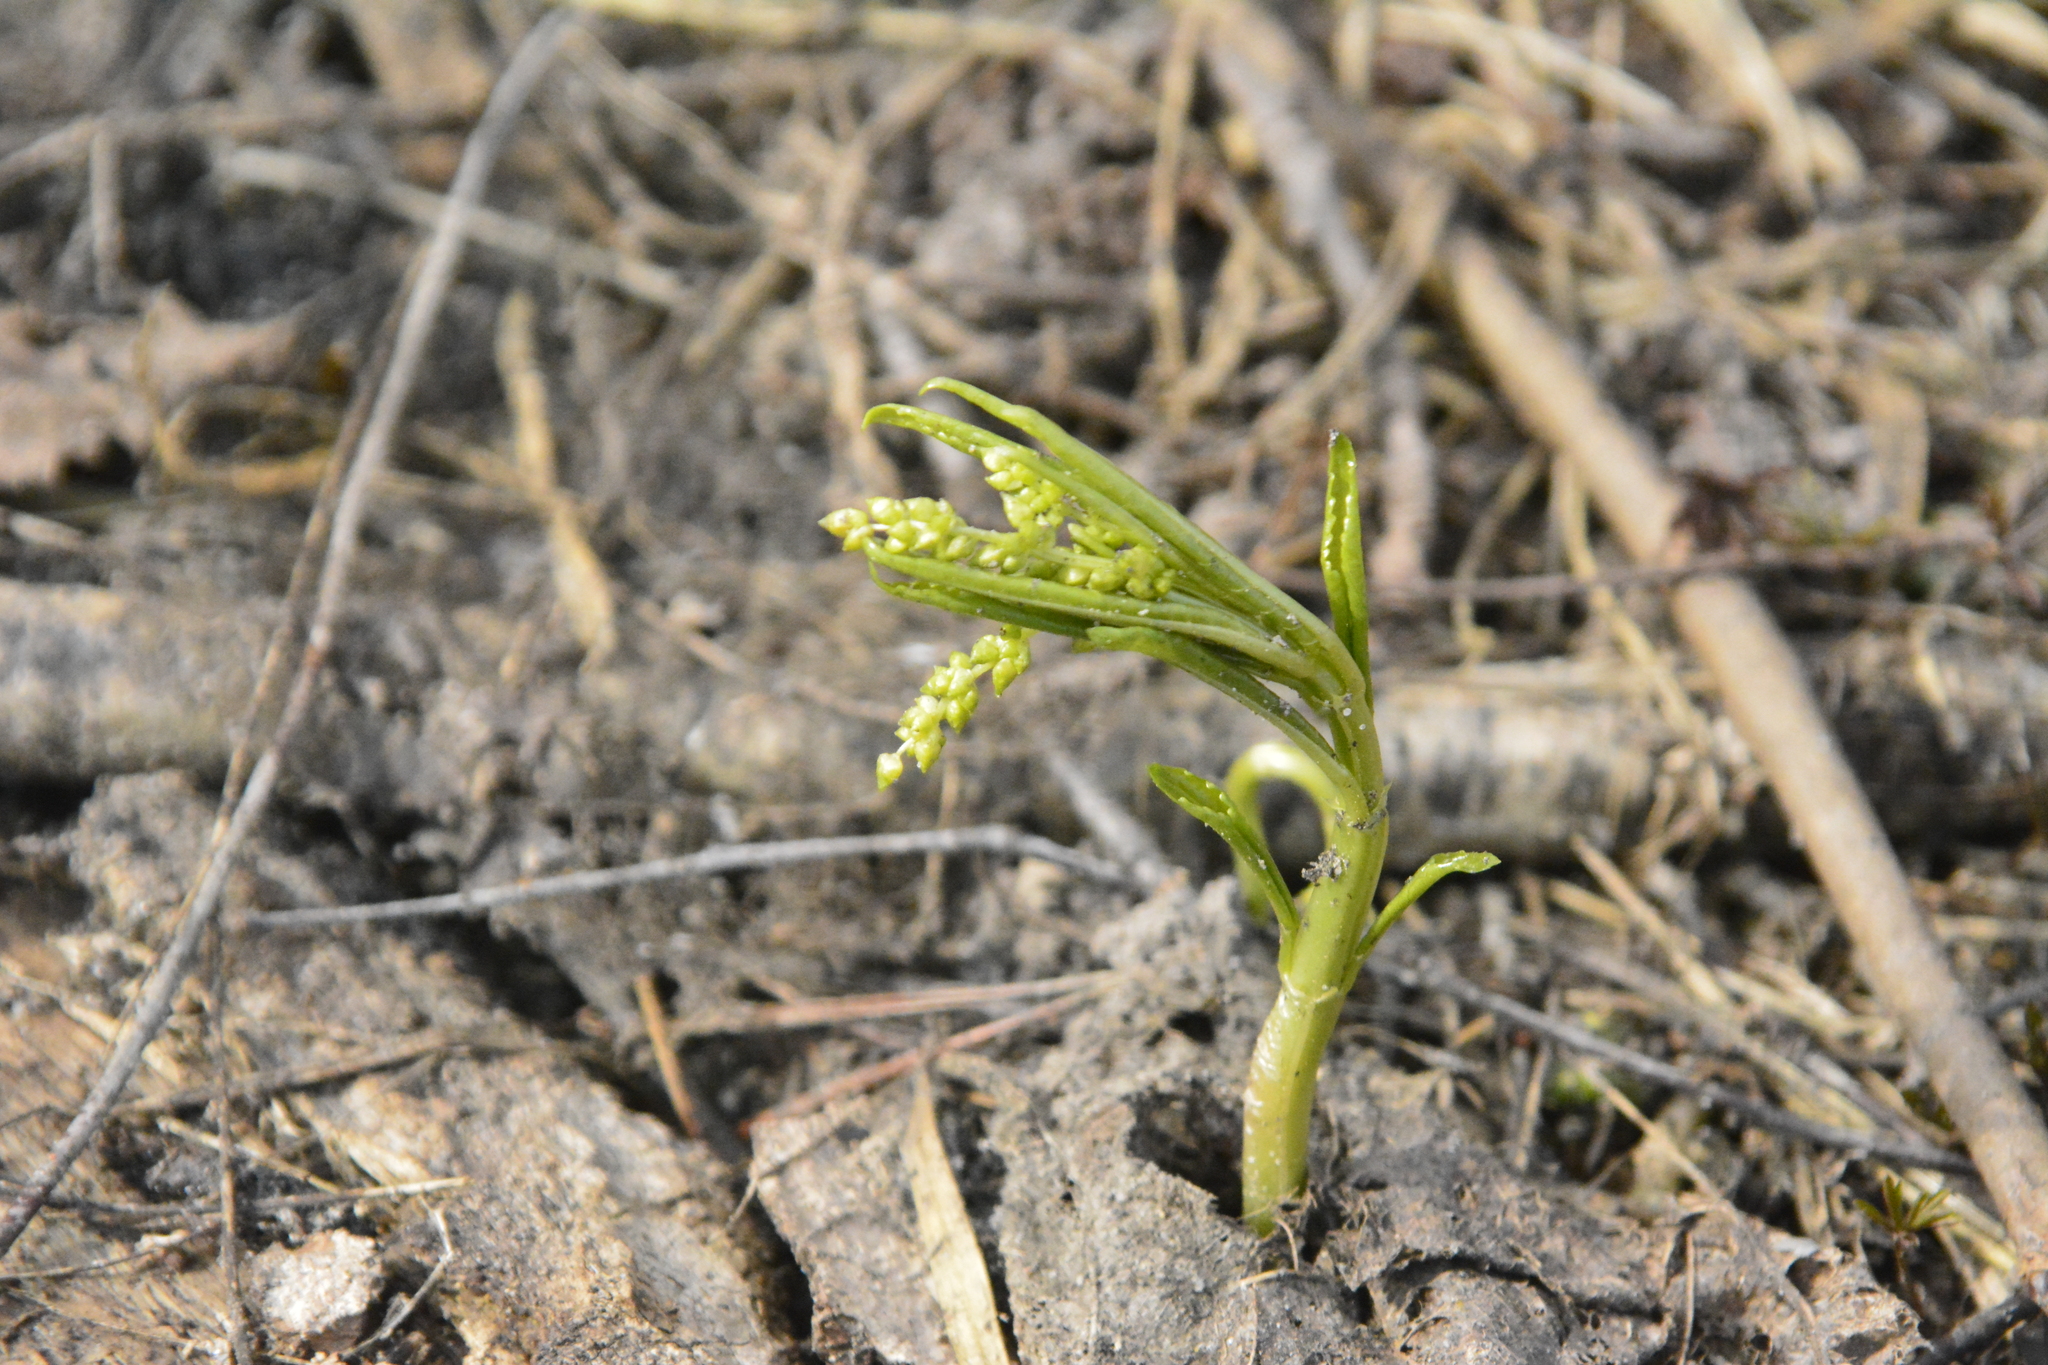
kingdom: Plantae
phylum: Tracheophyta
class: Magnoliopsida
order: Malpighiales
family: Euphorbiaceae
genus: Mercurialis
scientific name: Mercurialis perennis
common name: Dog mercury
